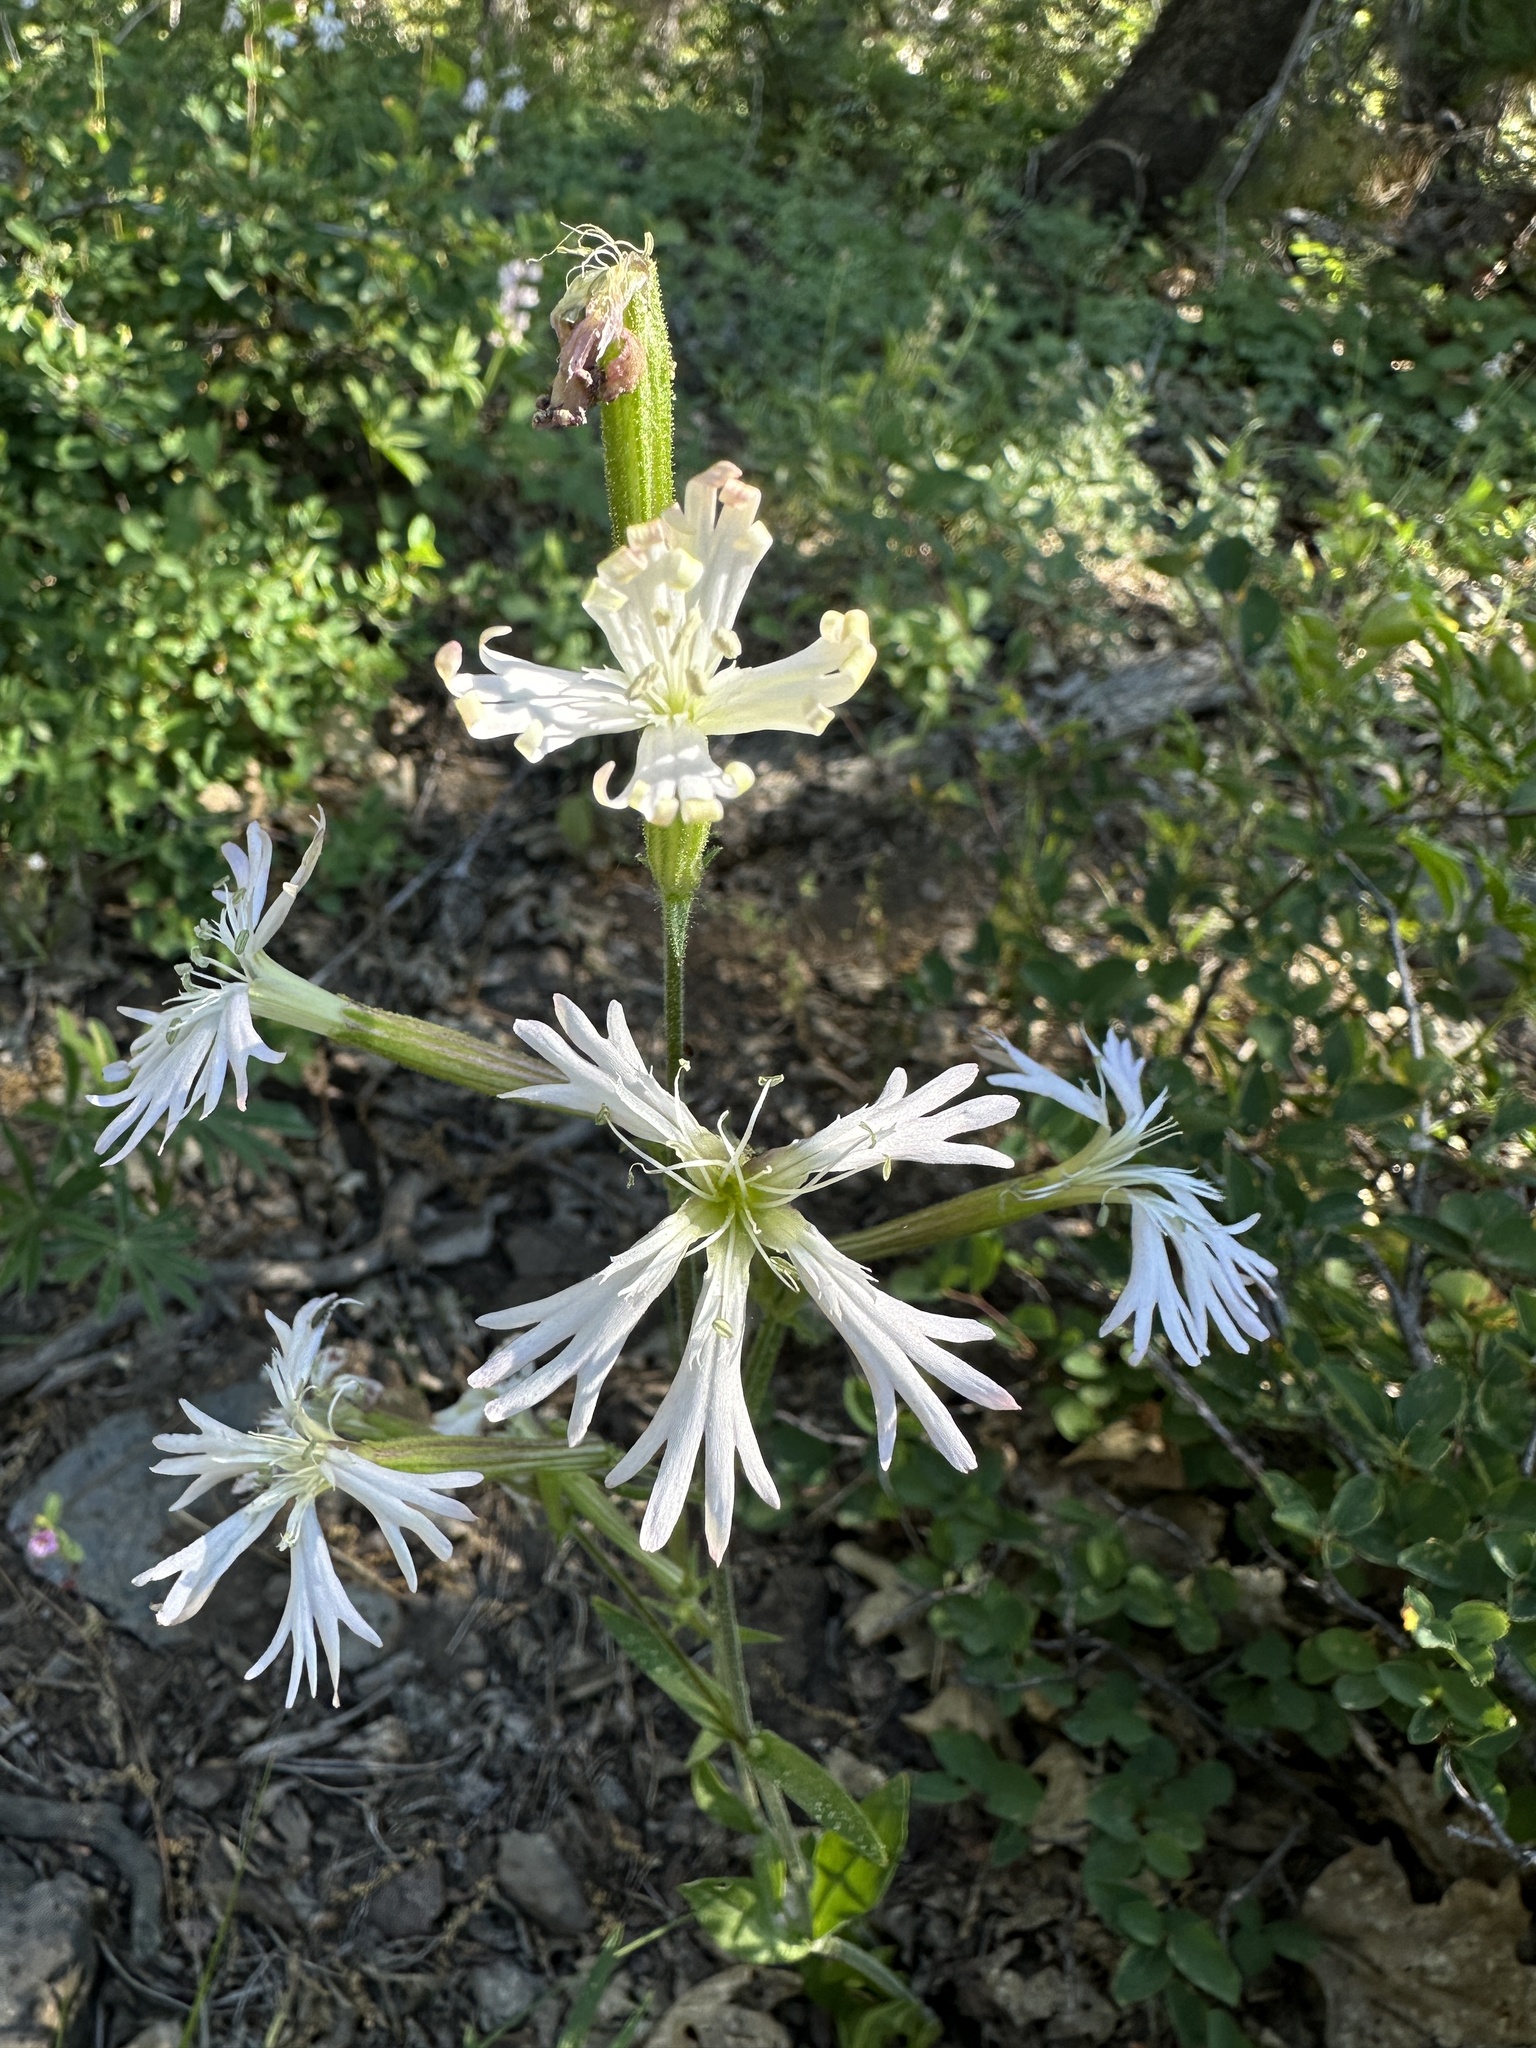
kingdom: Plantae
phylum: Tracheophyta
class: Magnoliopsida
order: Caryophyllales
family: Caryophyllaceae
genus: Silene
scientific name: Silene occidentalis
